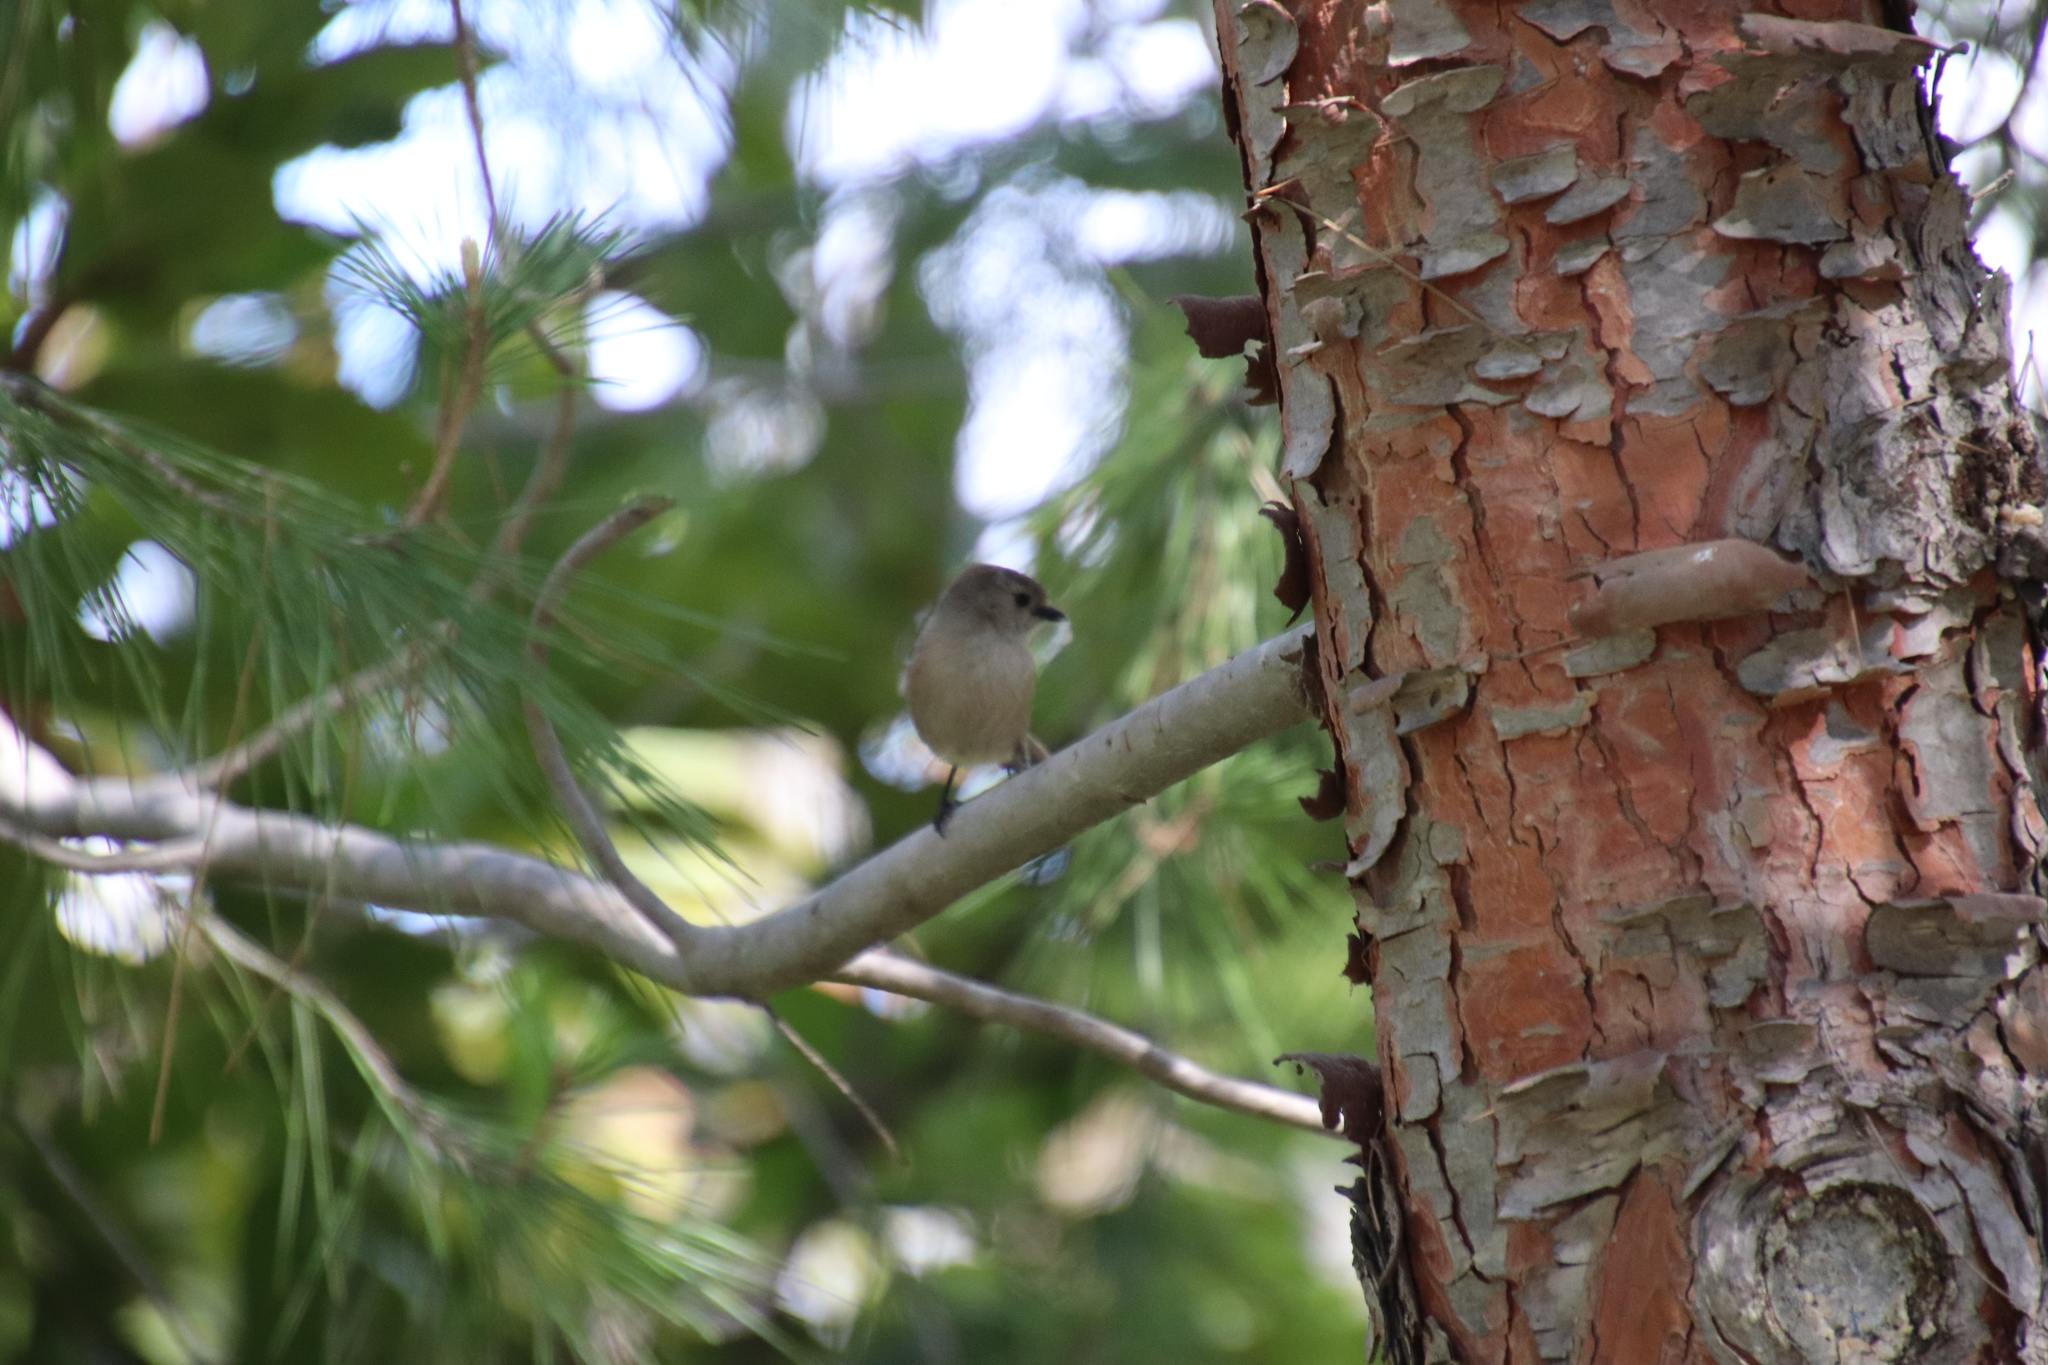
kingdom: Animalia
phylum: Chordata
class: Aves
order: Passeriformes
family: Aegithalidae
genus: Psaltriparus
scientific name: Psaltriparus minimus
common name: American bushtit
